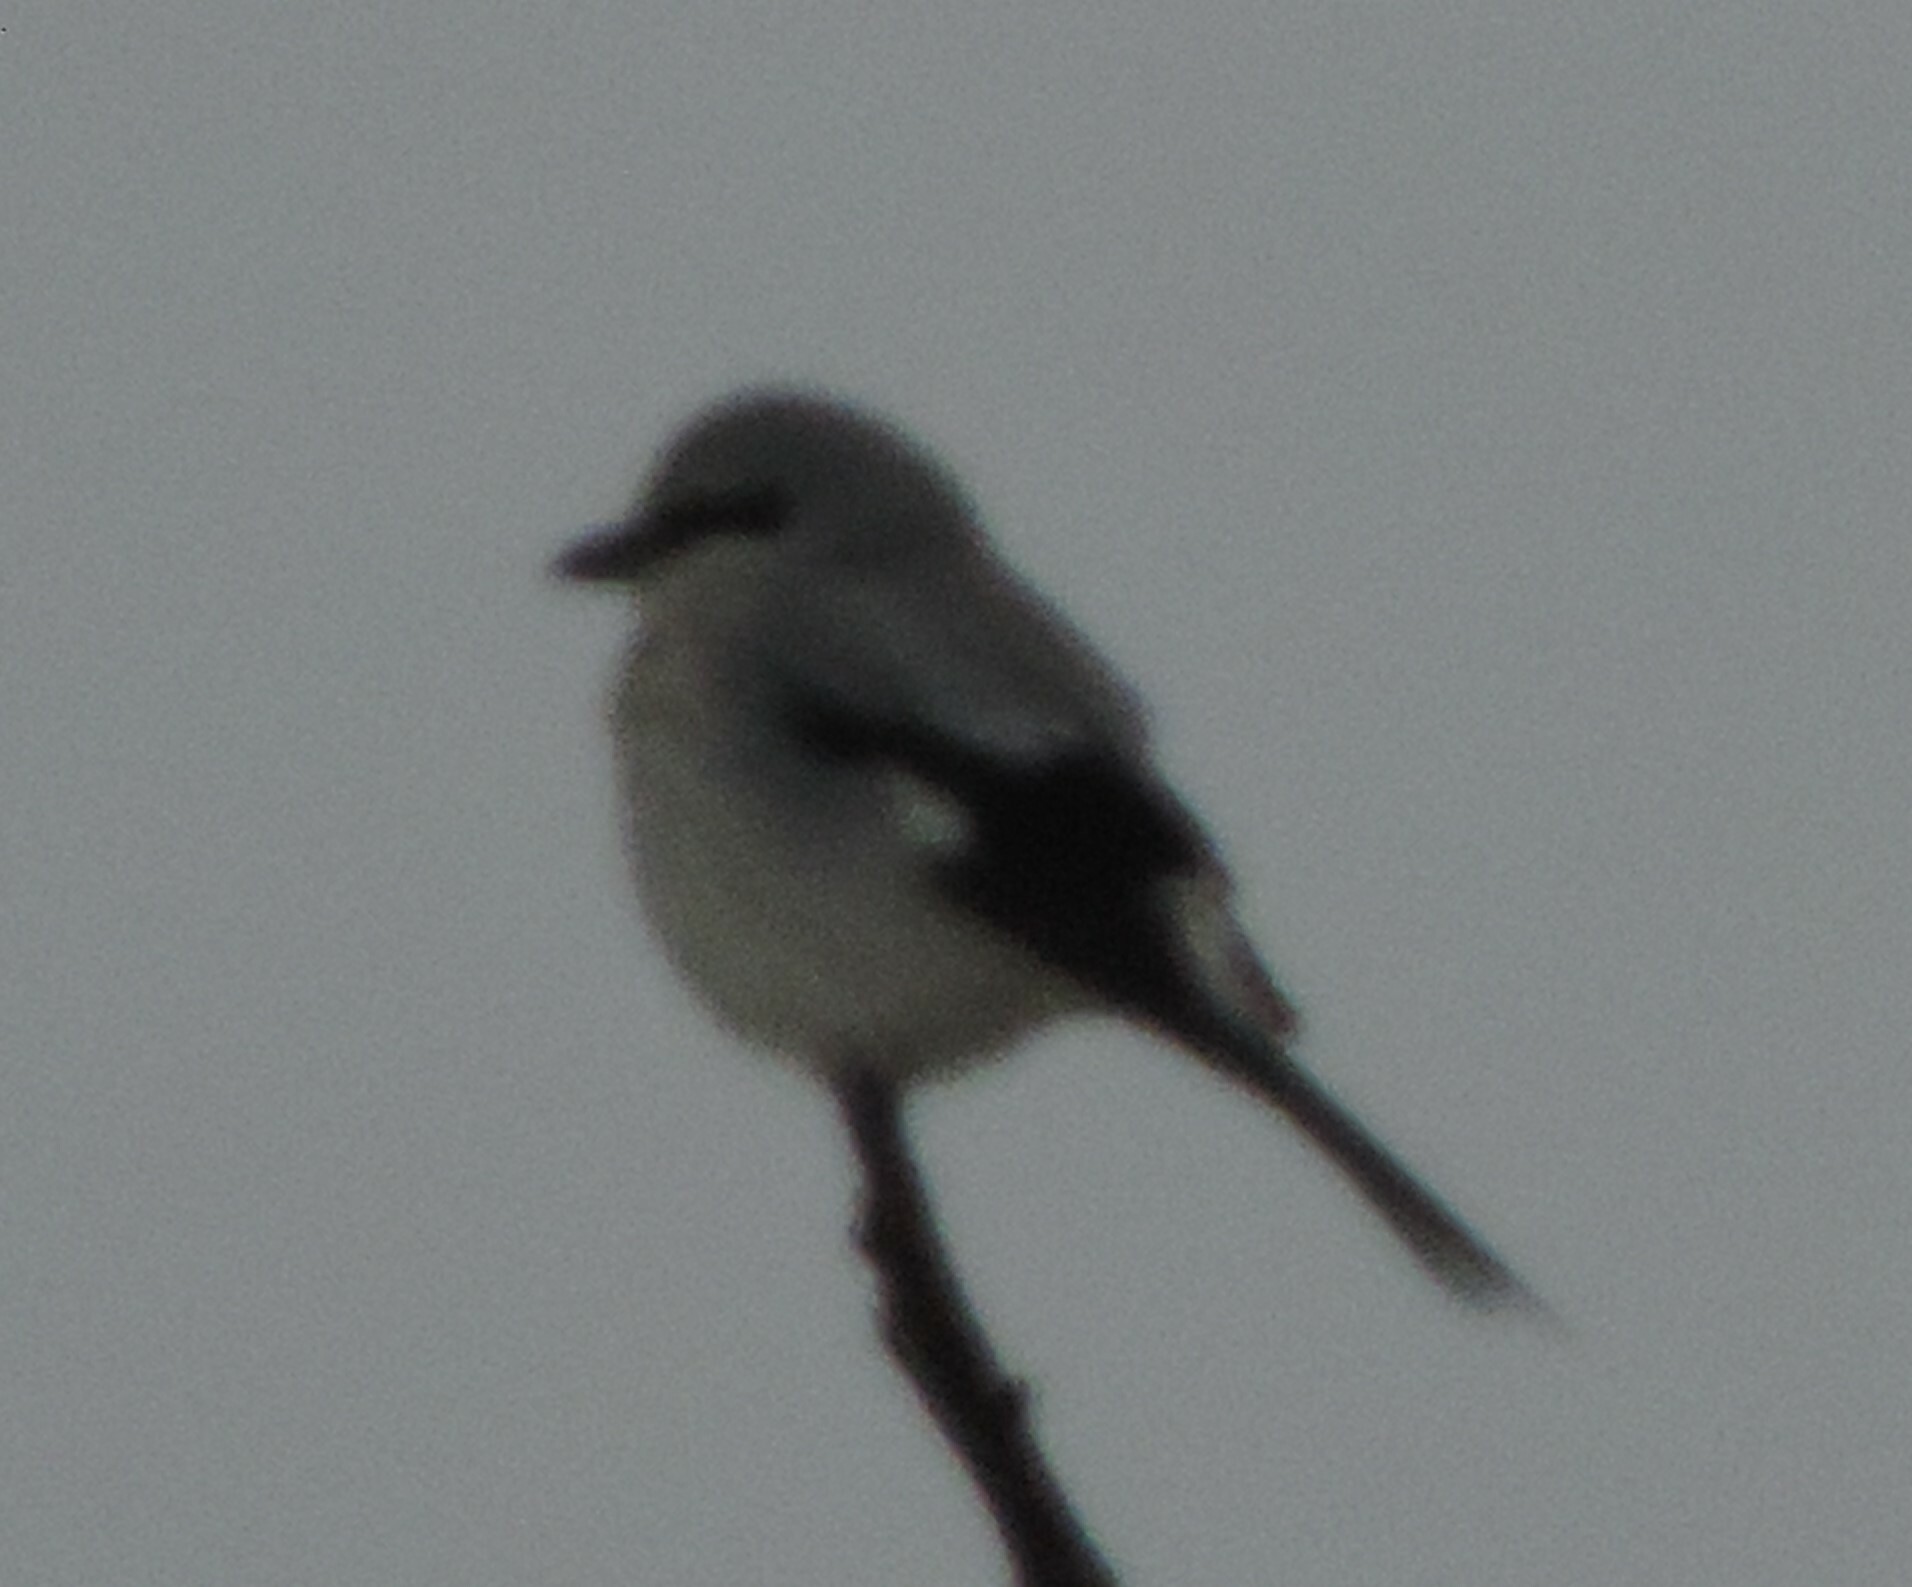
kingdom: Animalia
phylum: Chordata
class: Aves
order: Passeriformes
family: Laniidae
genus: Lanius
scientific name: Lanius borealis
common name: Northern shrike
